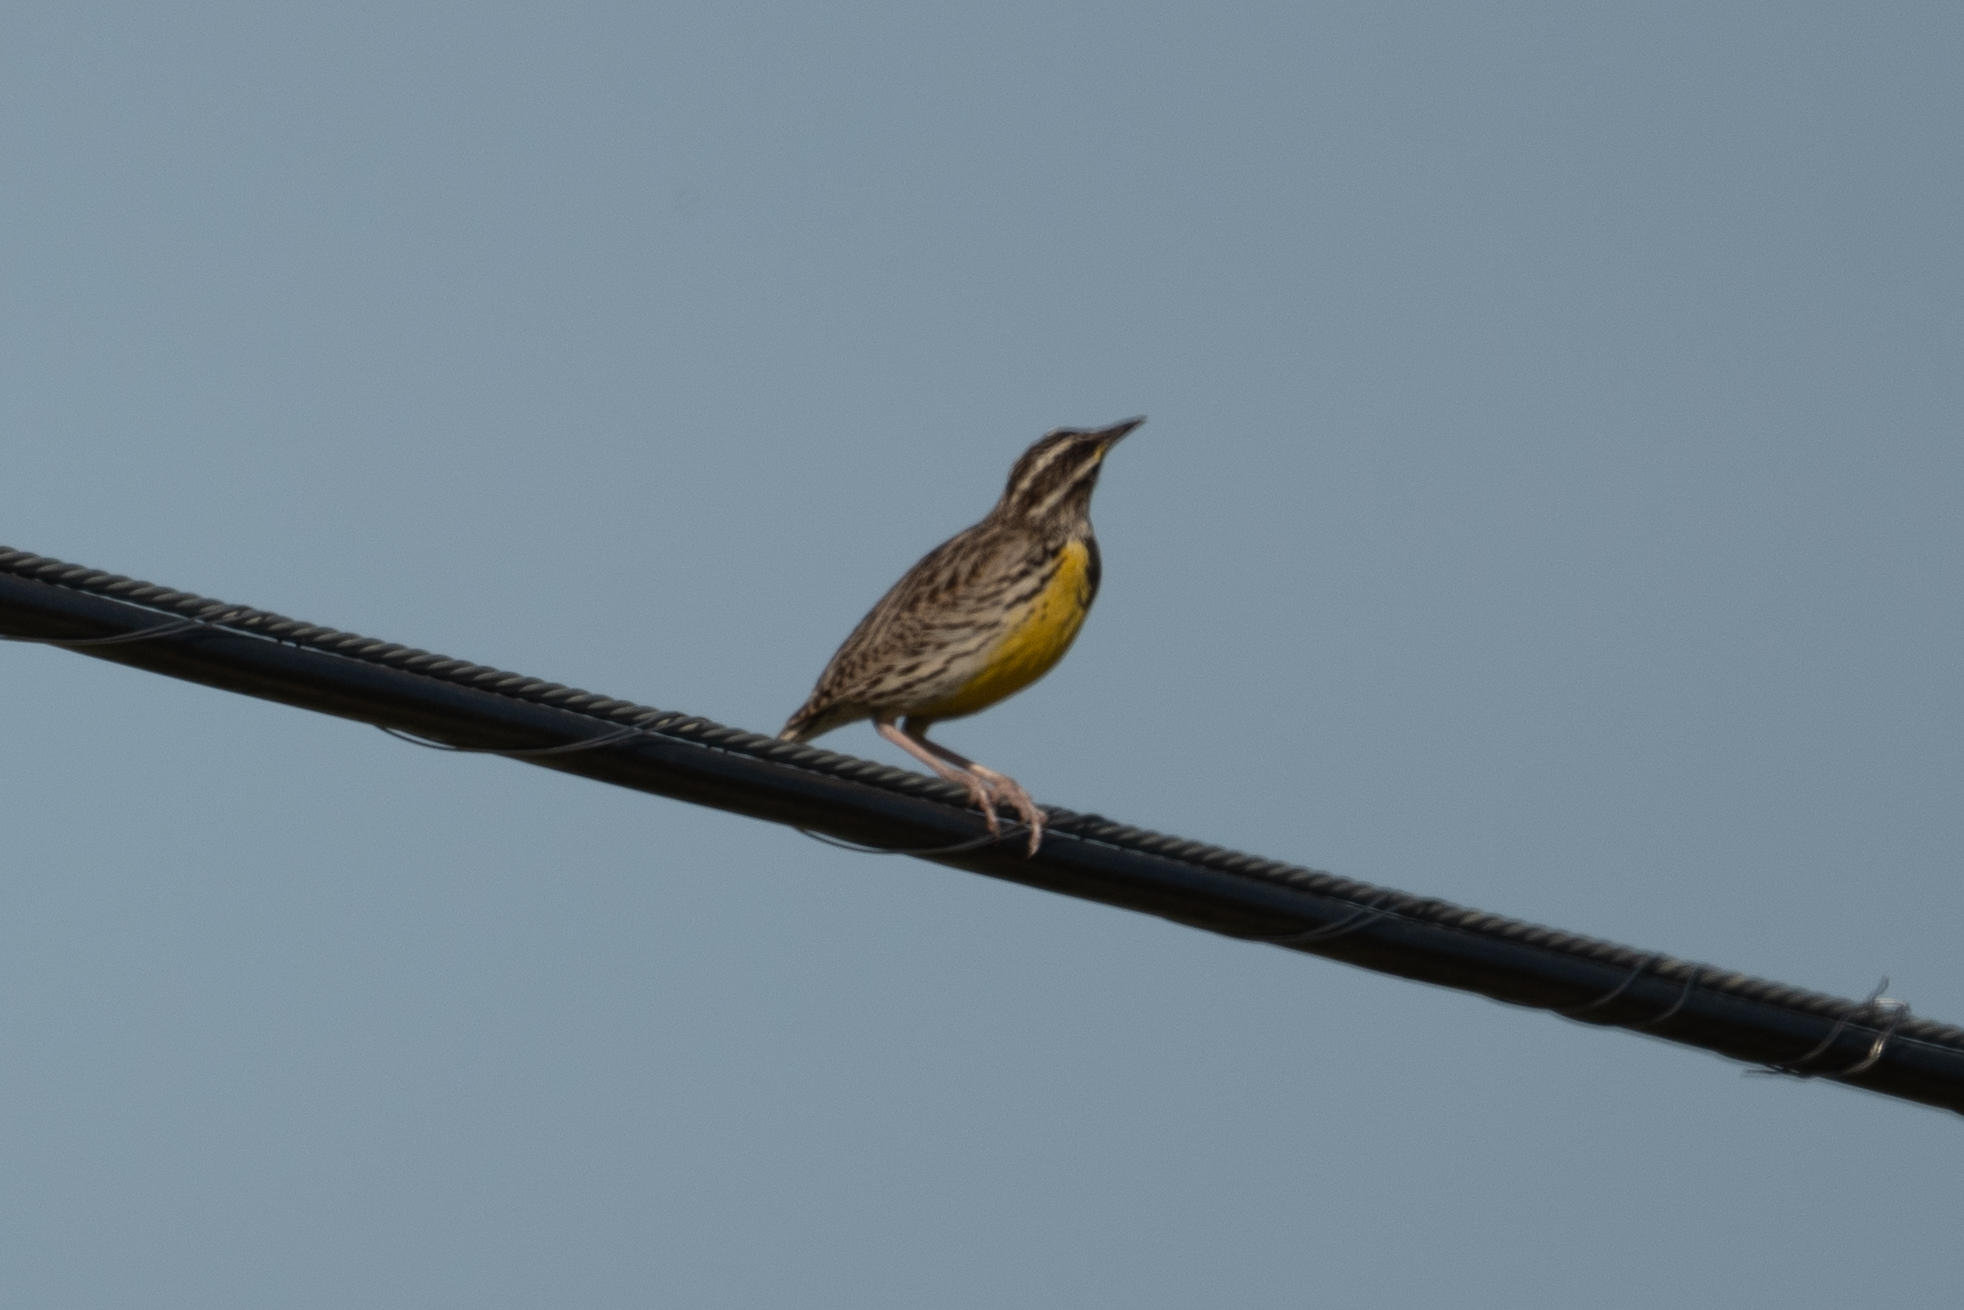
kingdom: Animalia
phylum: Chordata
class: Aves
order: Passeriformes
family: Icteridae
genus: Sturnella
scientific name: Sturnella neglecta
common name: Western meadowlark
